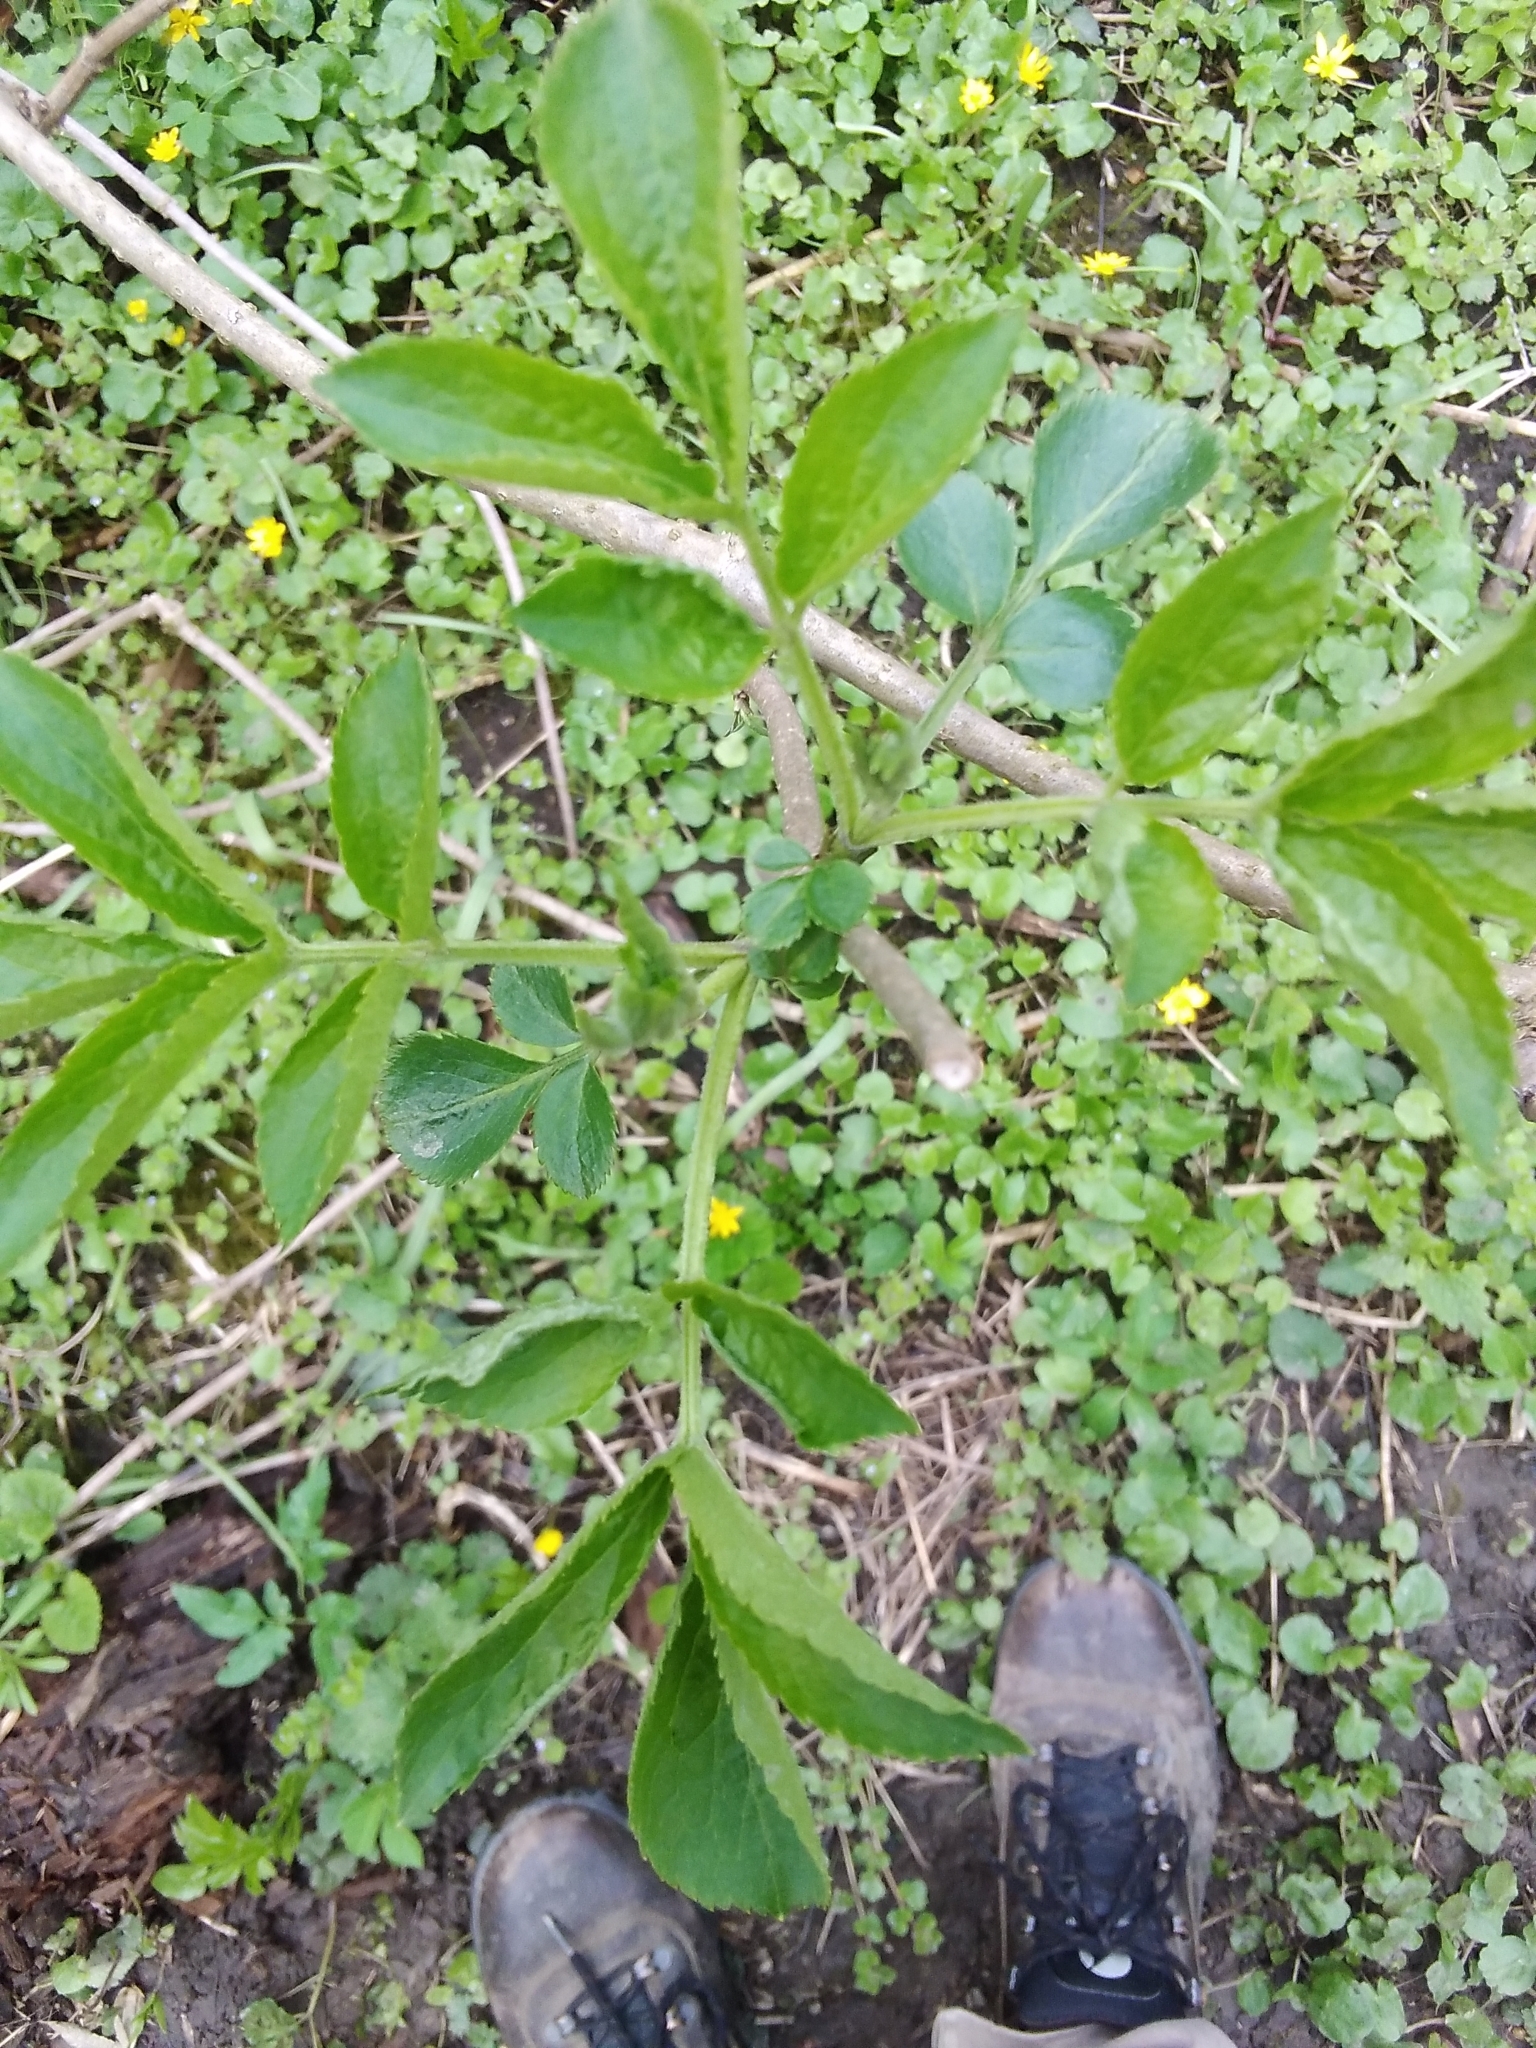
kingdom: Plantae
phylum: Tracheophyta
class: Magnoliopsida
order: Dipsacales
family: Viburnaceae
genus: Sambucus
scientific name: Sambucus nigra
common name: Elder
